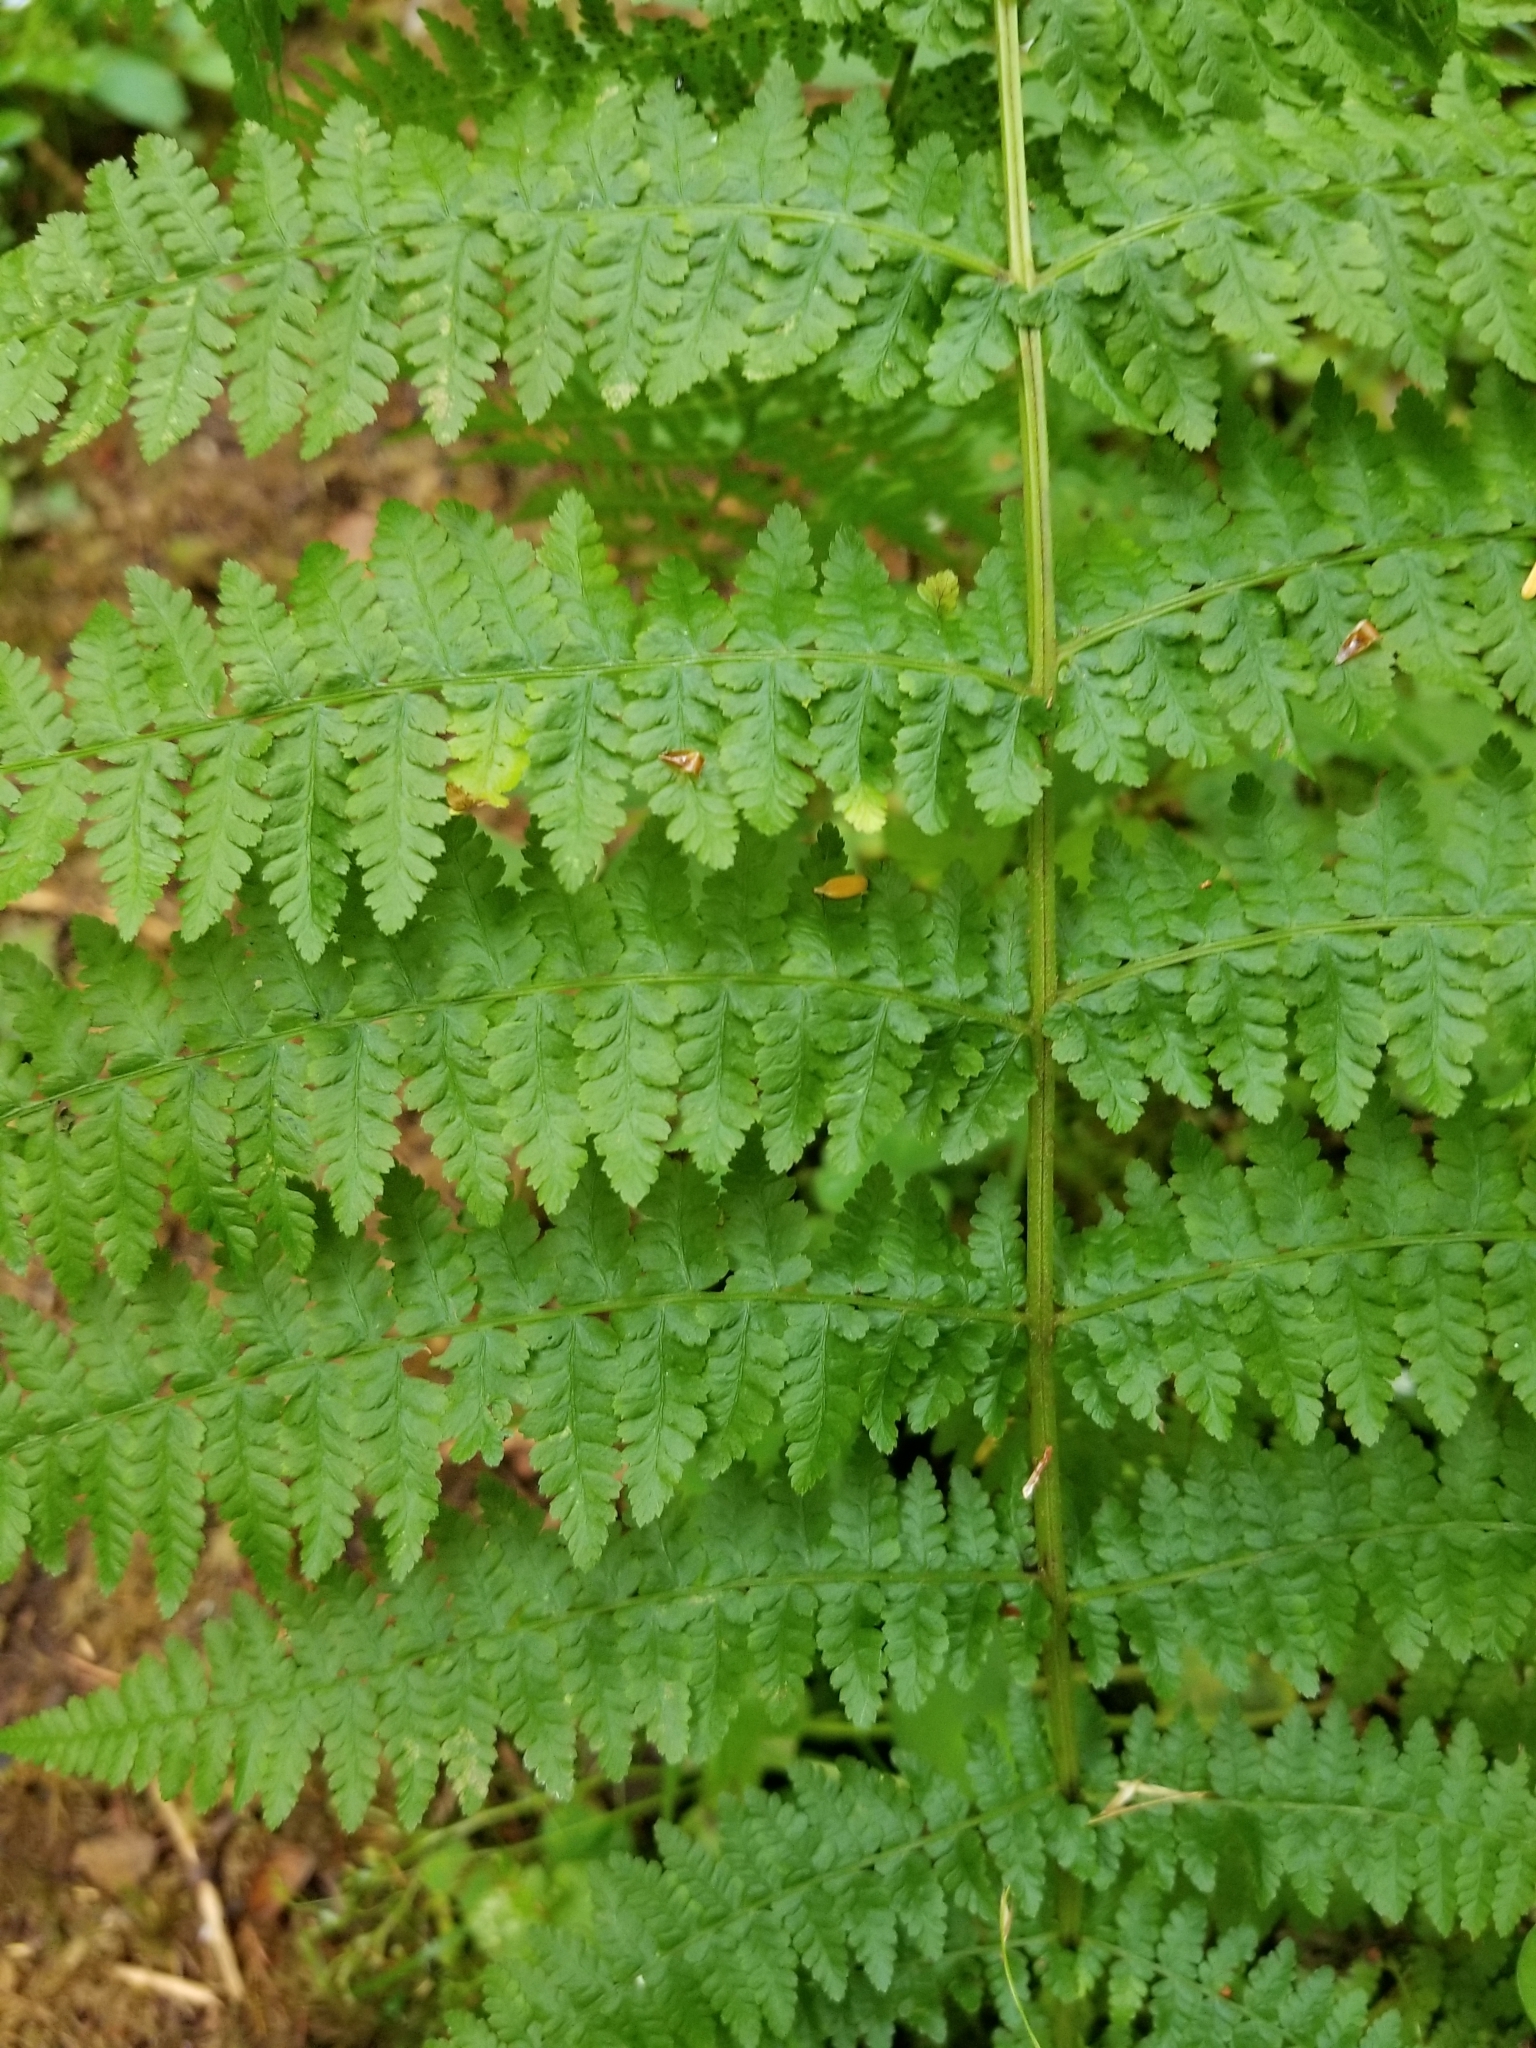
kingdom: Plantae
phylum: Tracheophyta
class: Polypodiopsida
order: Polypodiales
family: Athyriaceae
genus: Athyrium
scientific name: Athyrium filix-femina
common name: Lady fern
